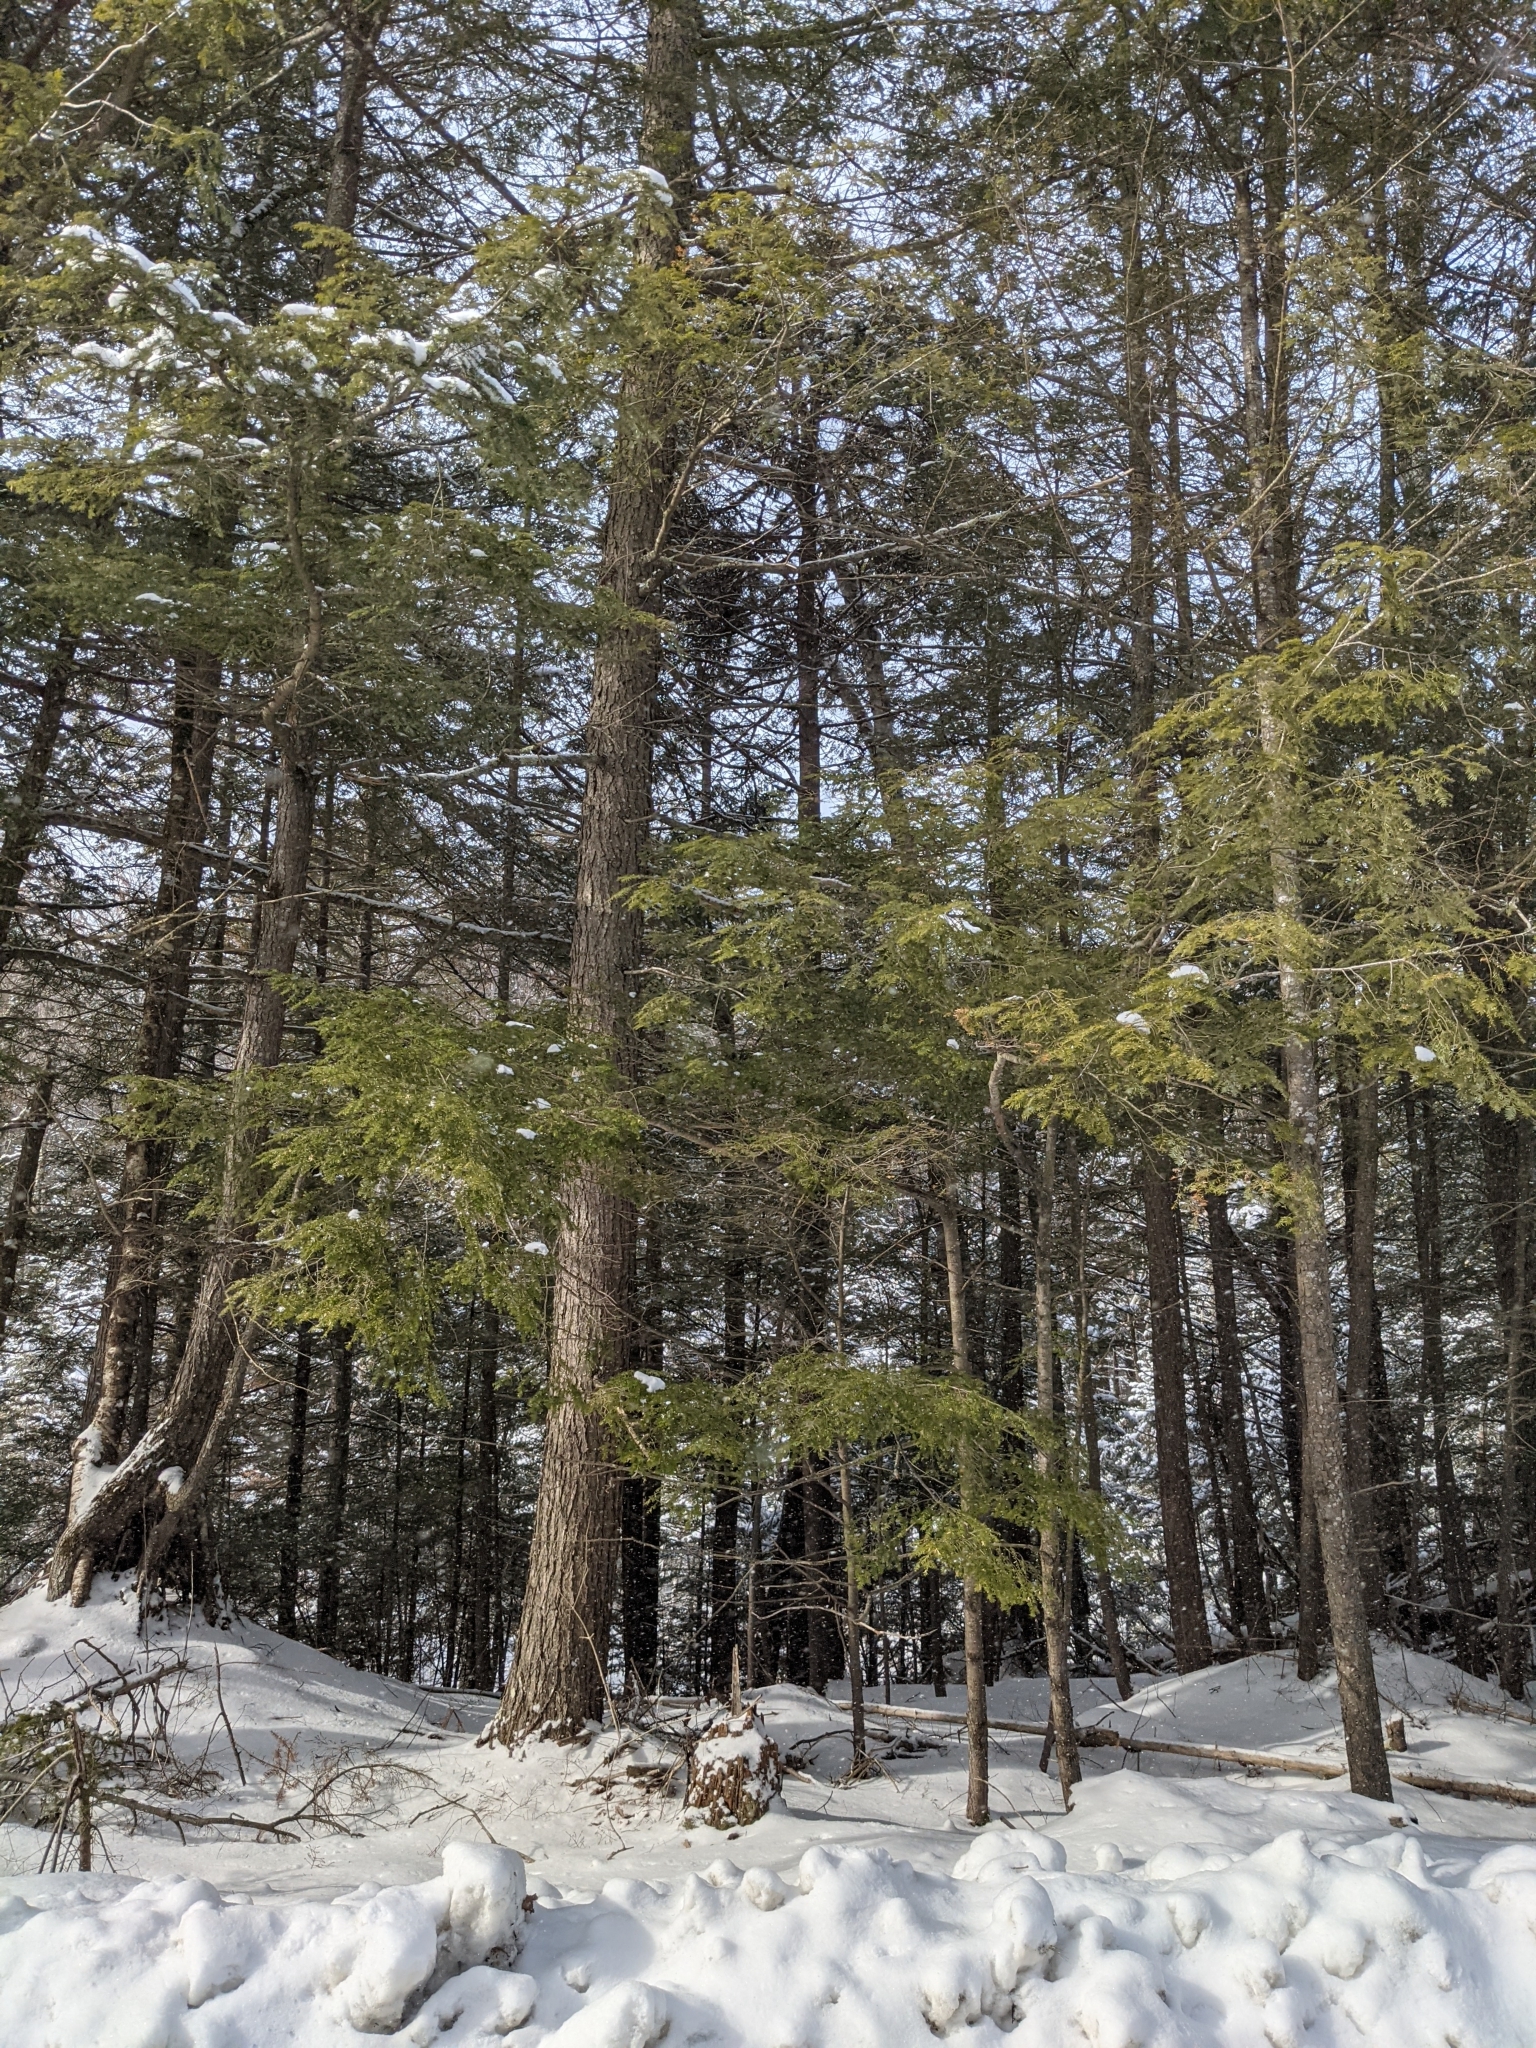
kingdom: Plantae
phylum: Tracheophyta
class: Pinopsida
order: Pinales
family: Pinaceae
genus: Tsuga
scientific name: Tsuga canadensis
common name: Eastern hemlock
